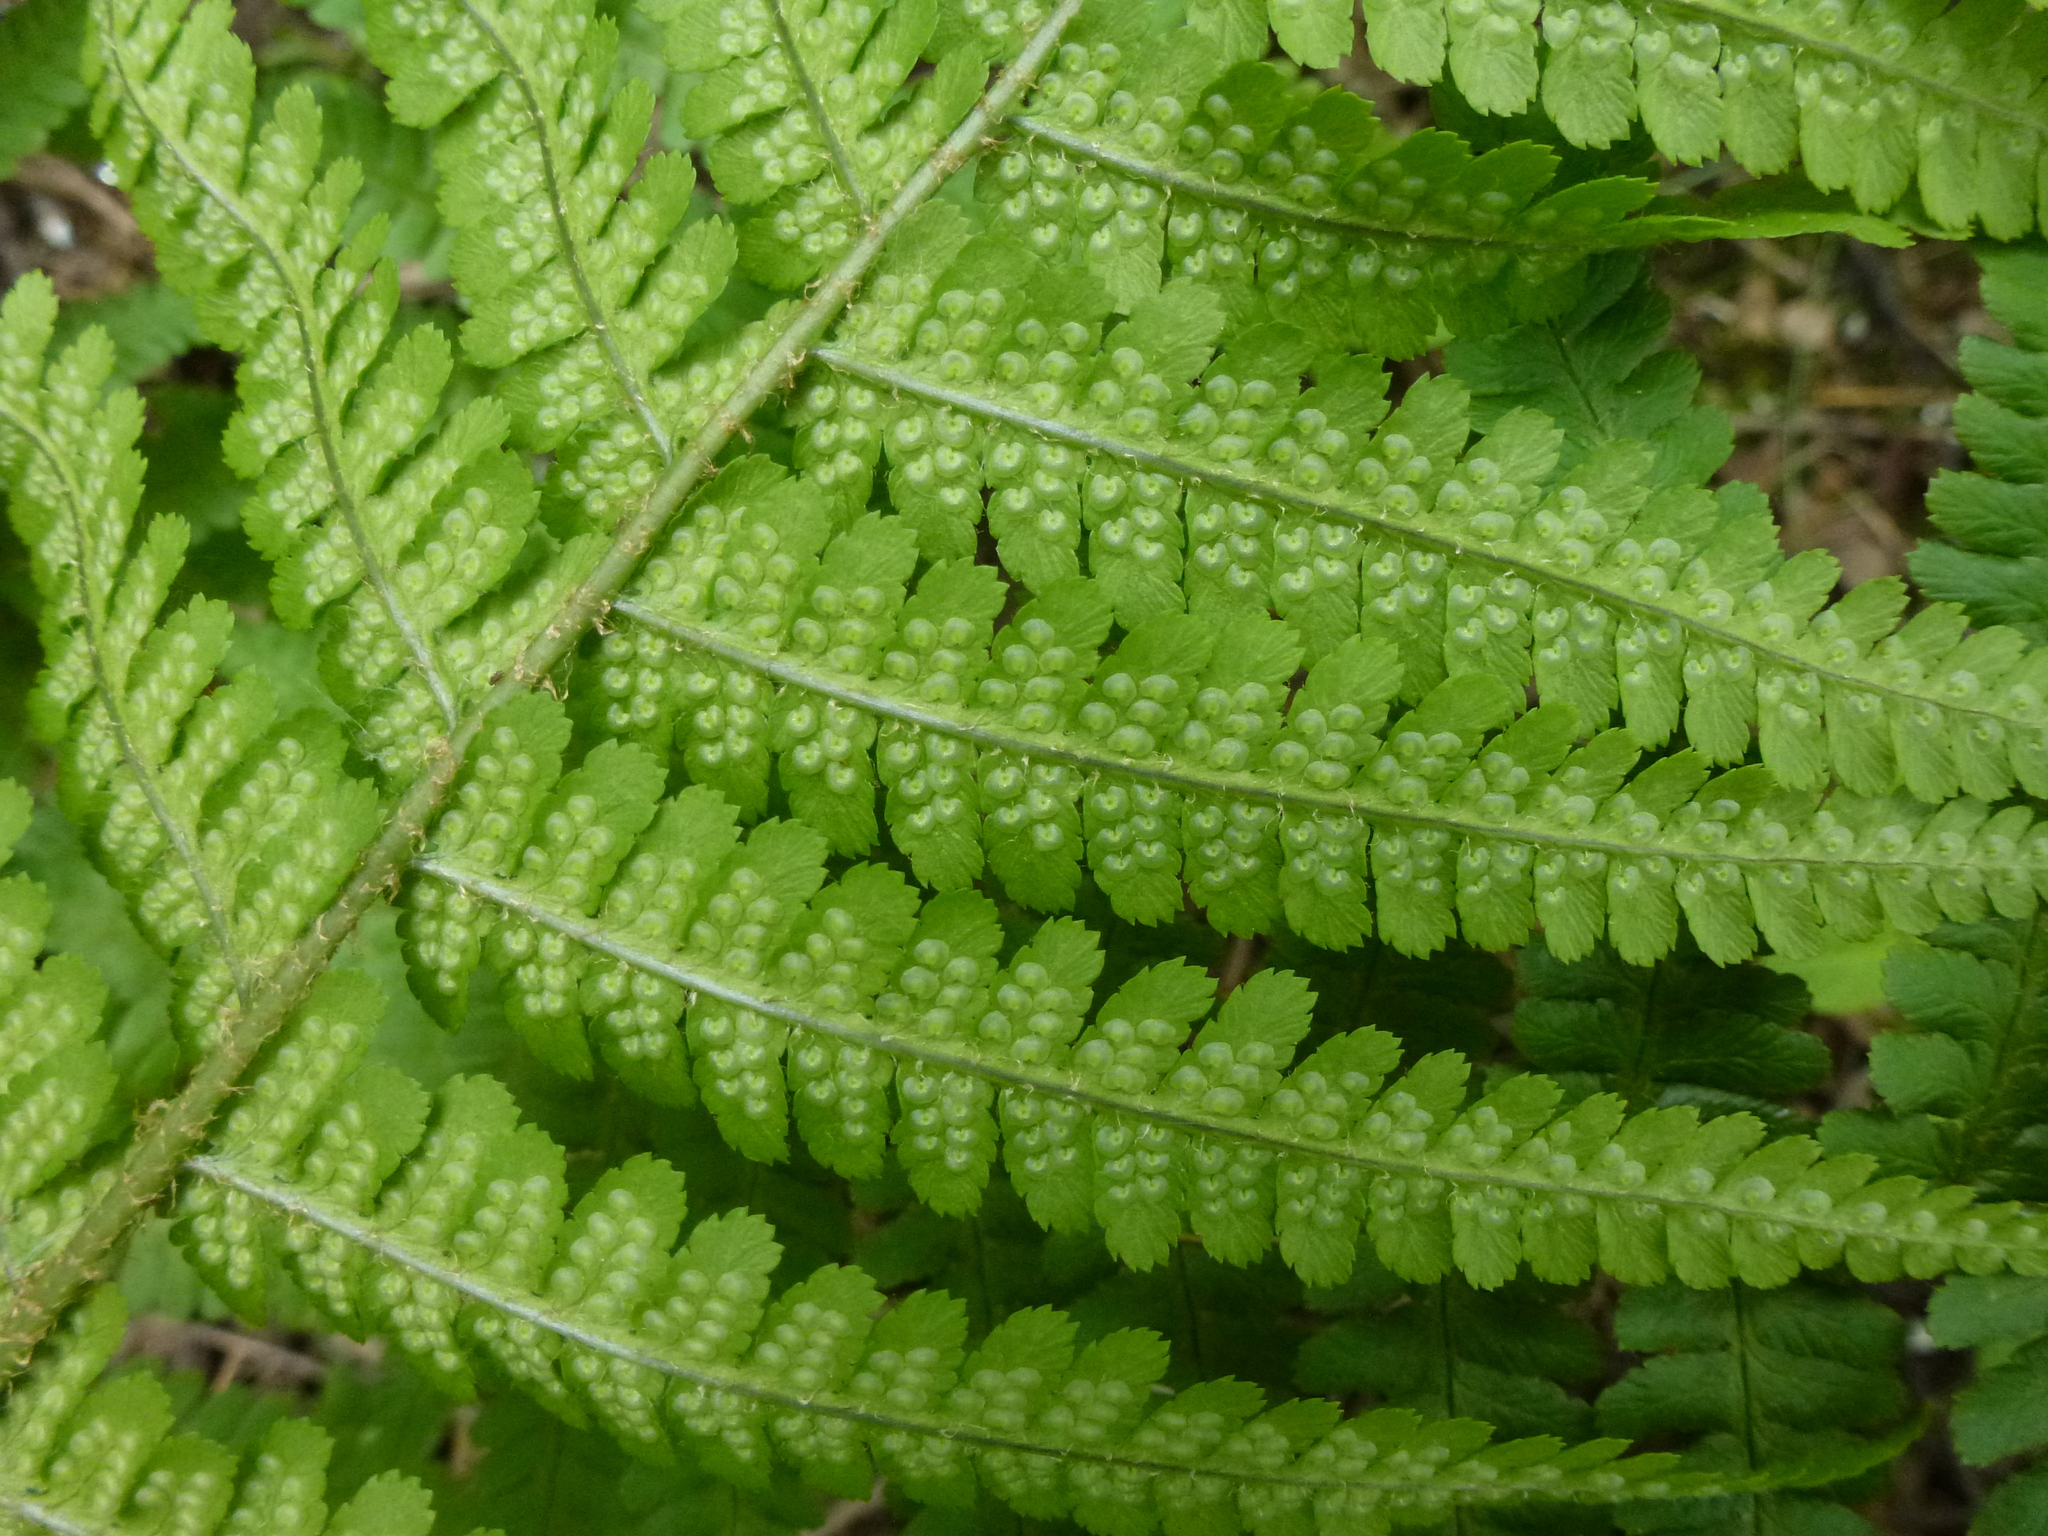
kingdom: Plantae
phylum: Tracheophyta
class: Polypodiopsida
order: Polypodiales
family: Dryopteridaceae
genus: Dryopteris
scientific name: Dryopteris filix-mas
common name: Male fern
